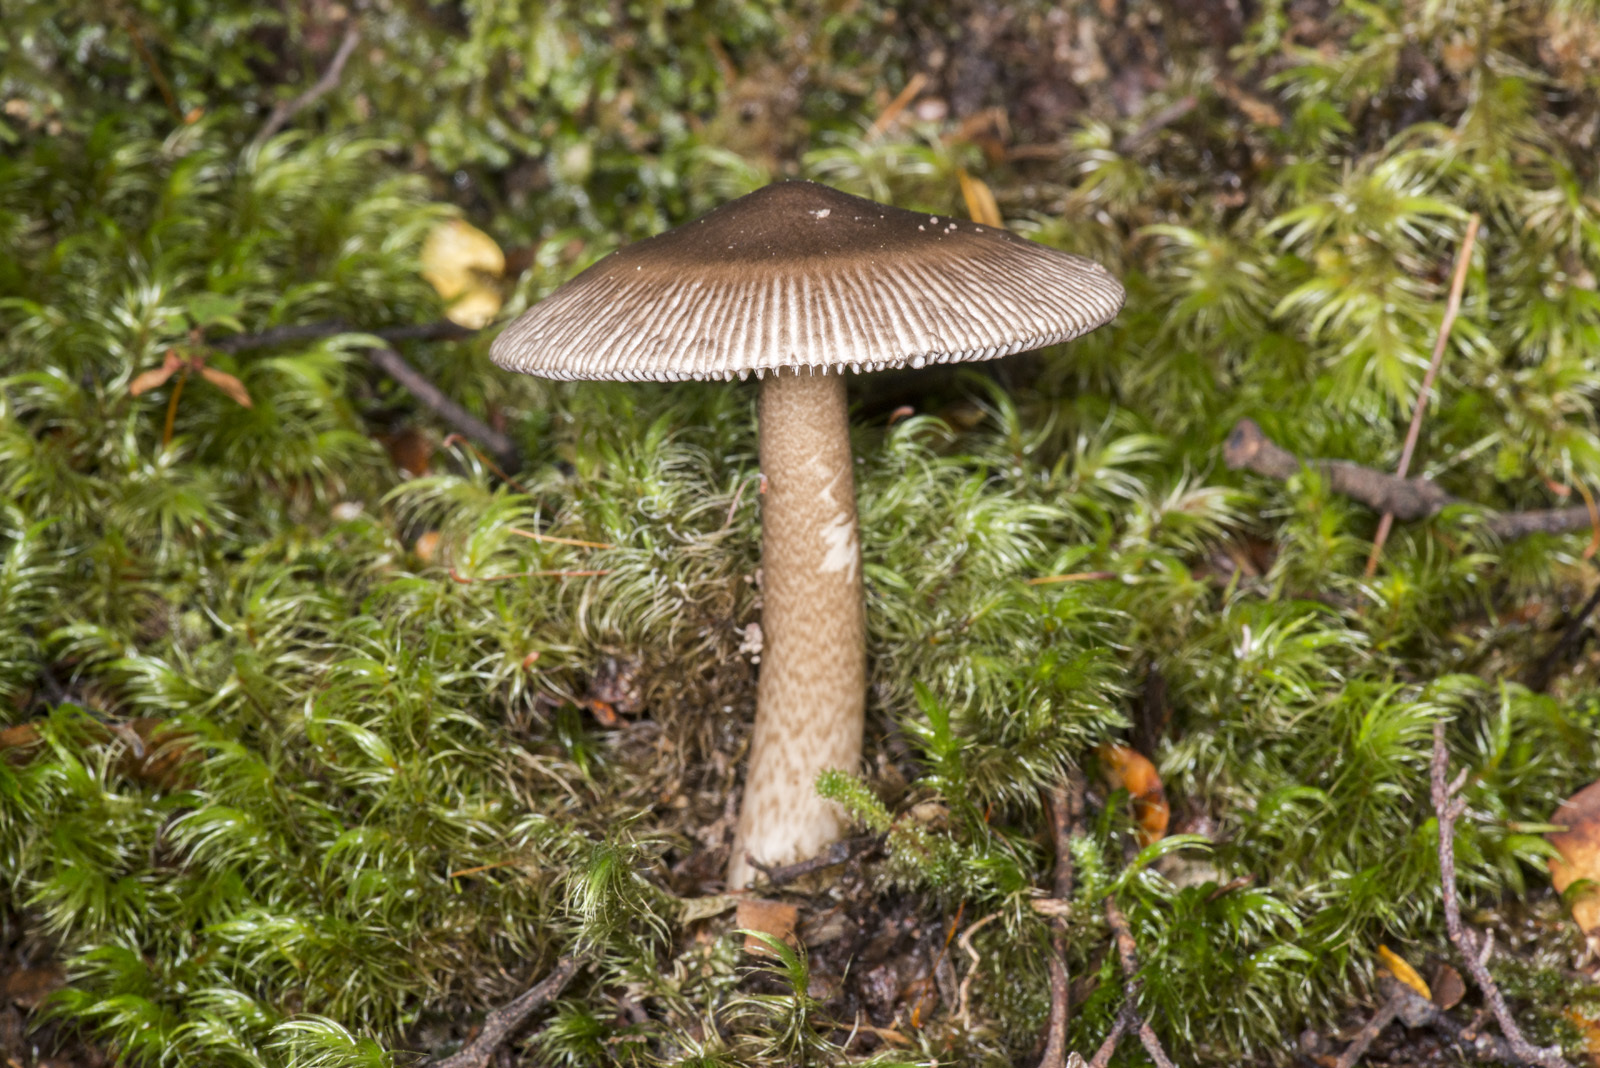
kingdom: Fungi
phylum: Basidiomycota
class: Agaricomycetes
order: Agaricales
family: Amanitaceae
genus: Amanita
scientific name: Amanita pekeoides
